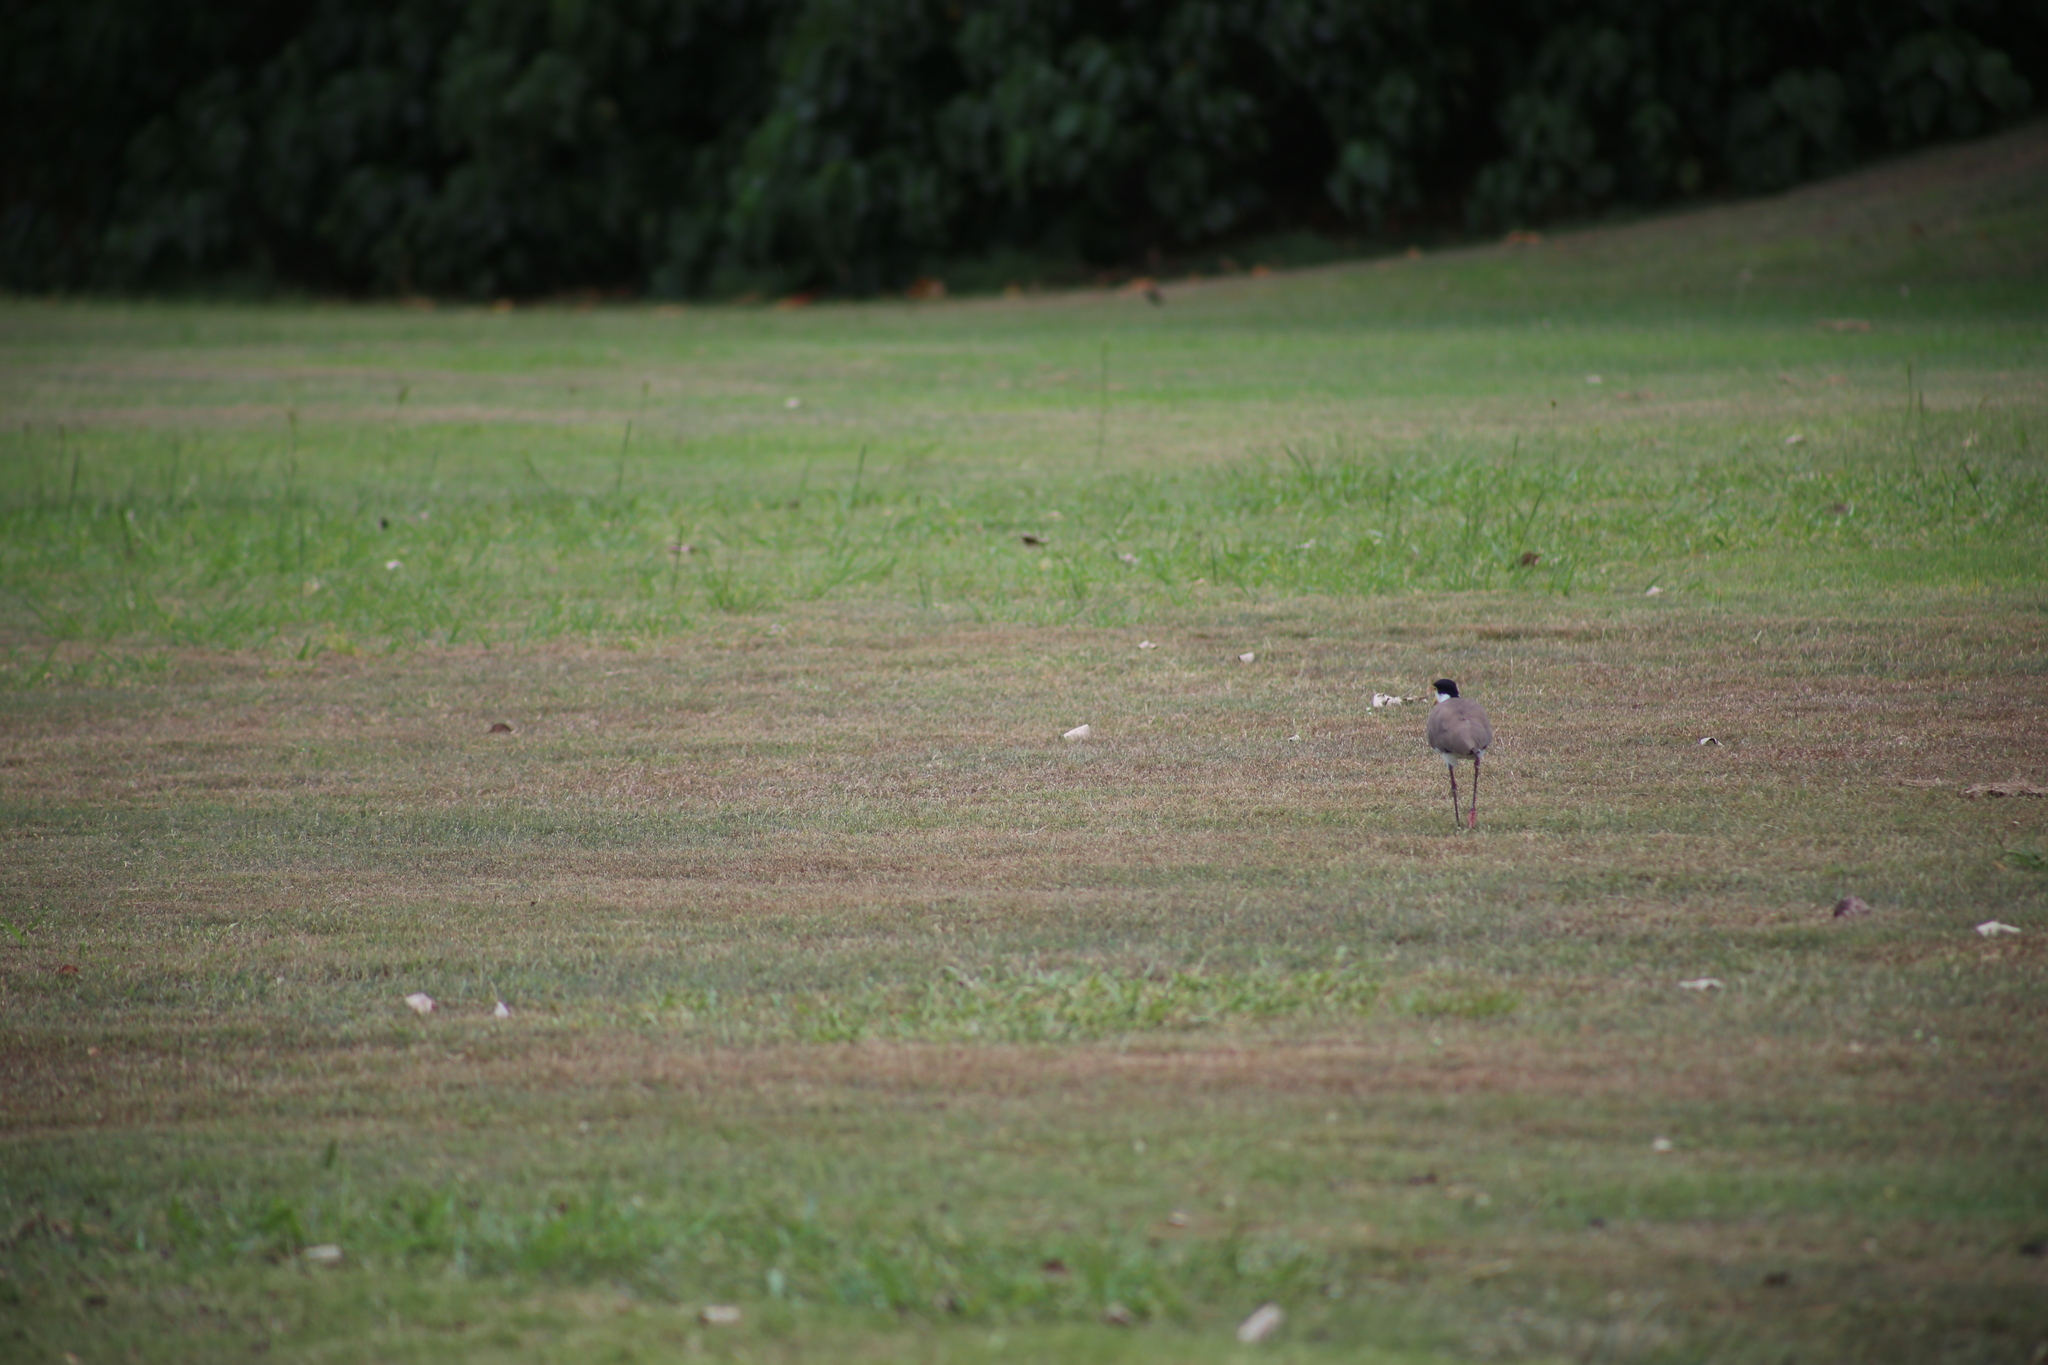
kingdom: Animalia
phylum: Chordata
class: Aves
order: Charadriiformes
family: Charadriidae
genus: Vanellus
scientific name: Vanellus miles
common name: Masked lapwing
